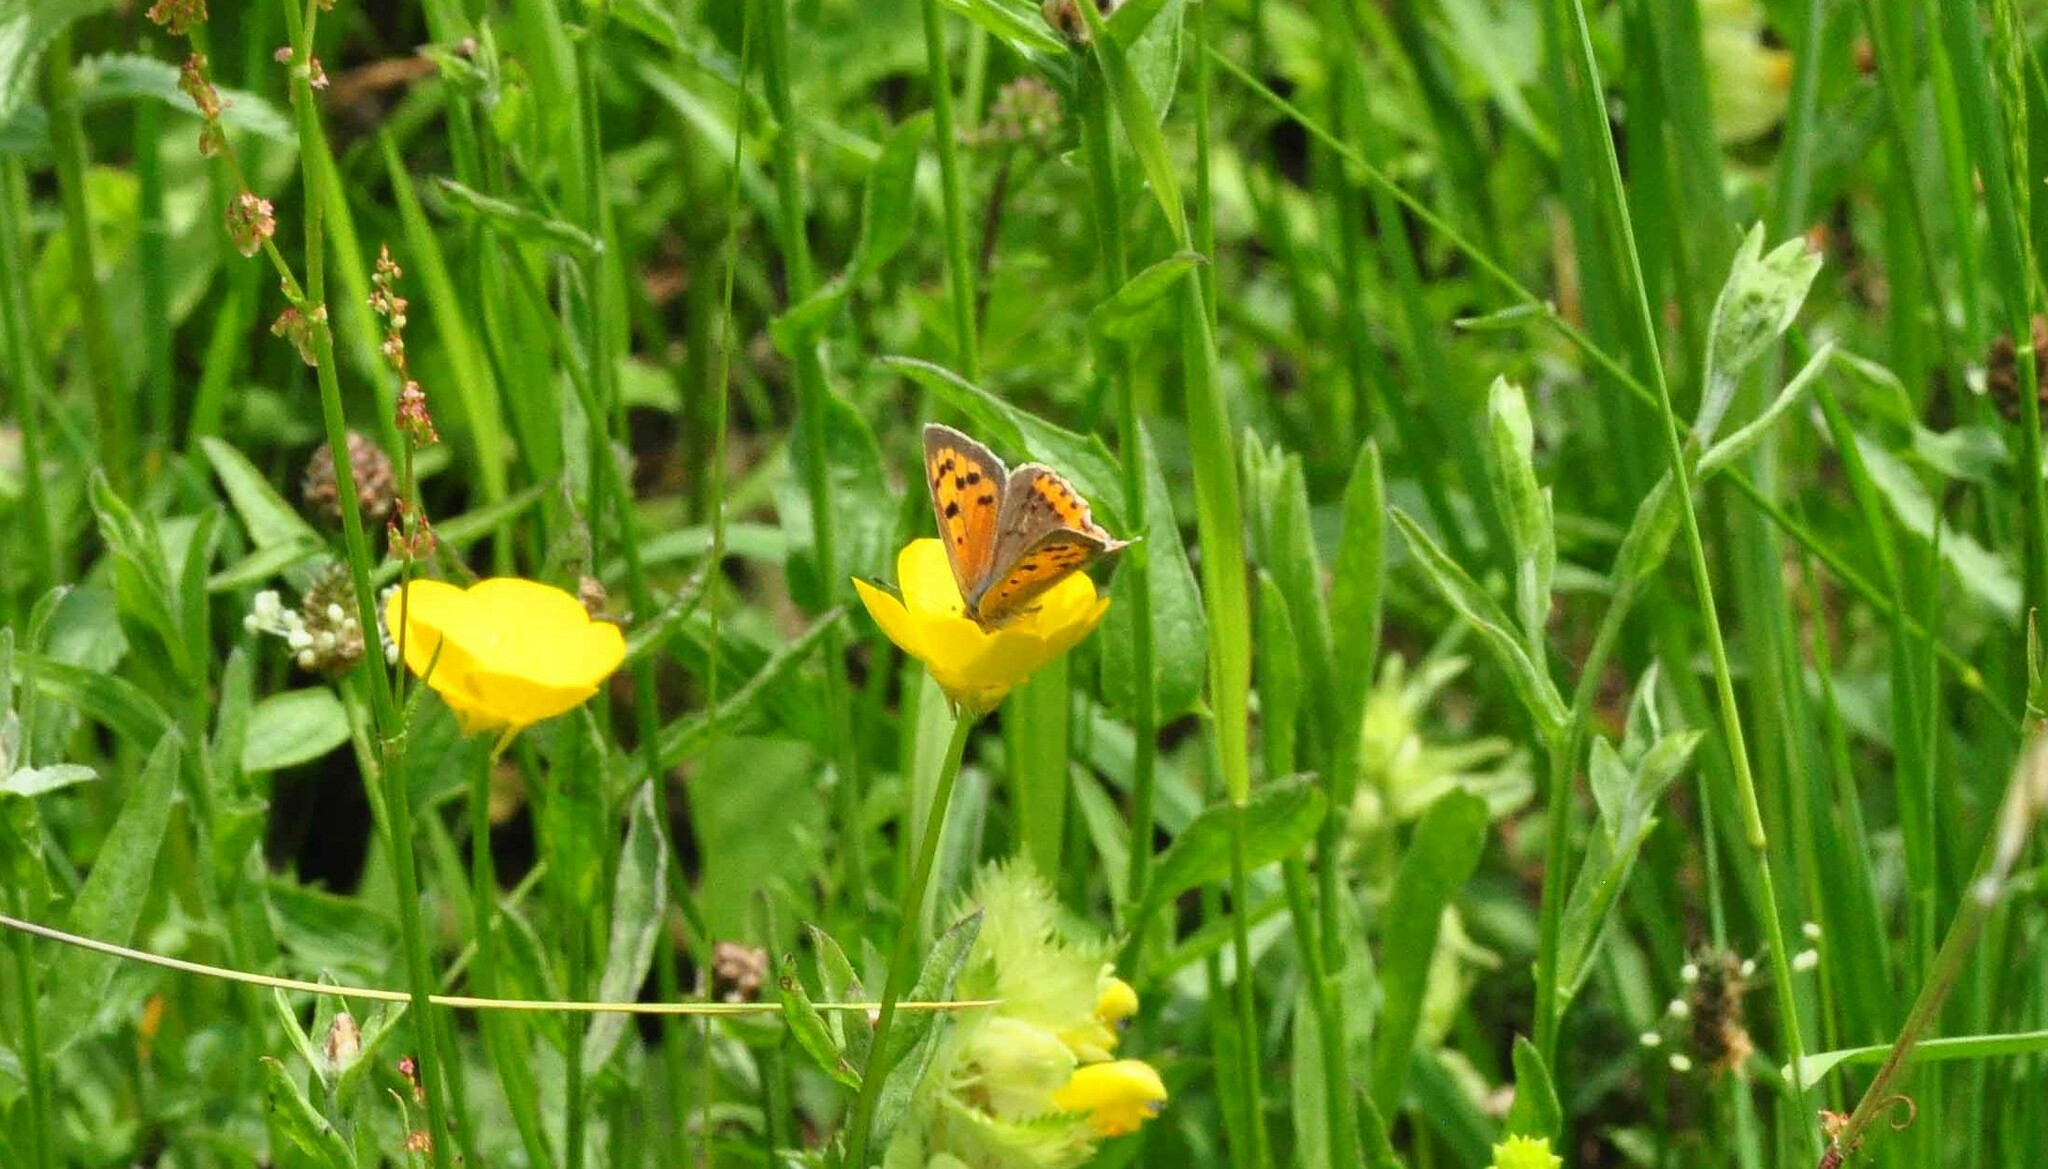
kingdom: Animalia
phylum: Arthropoda
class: Insecta
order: Lepidoptera
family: Lycaenidae
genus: Lycaena
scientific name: Lycaena phlaeas
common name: Small copper
